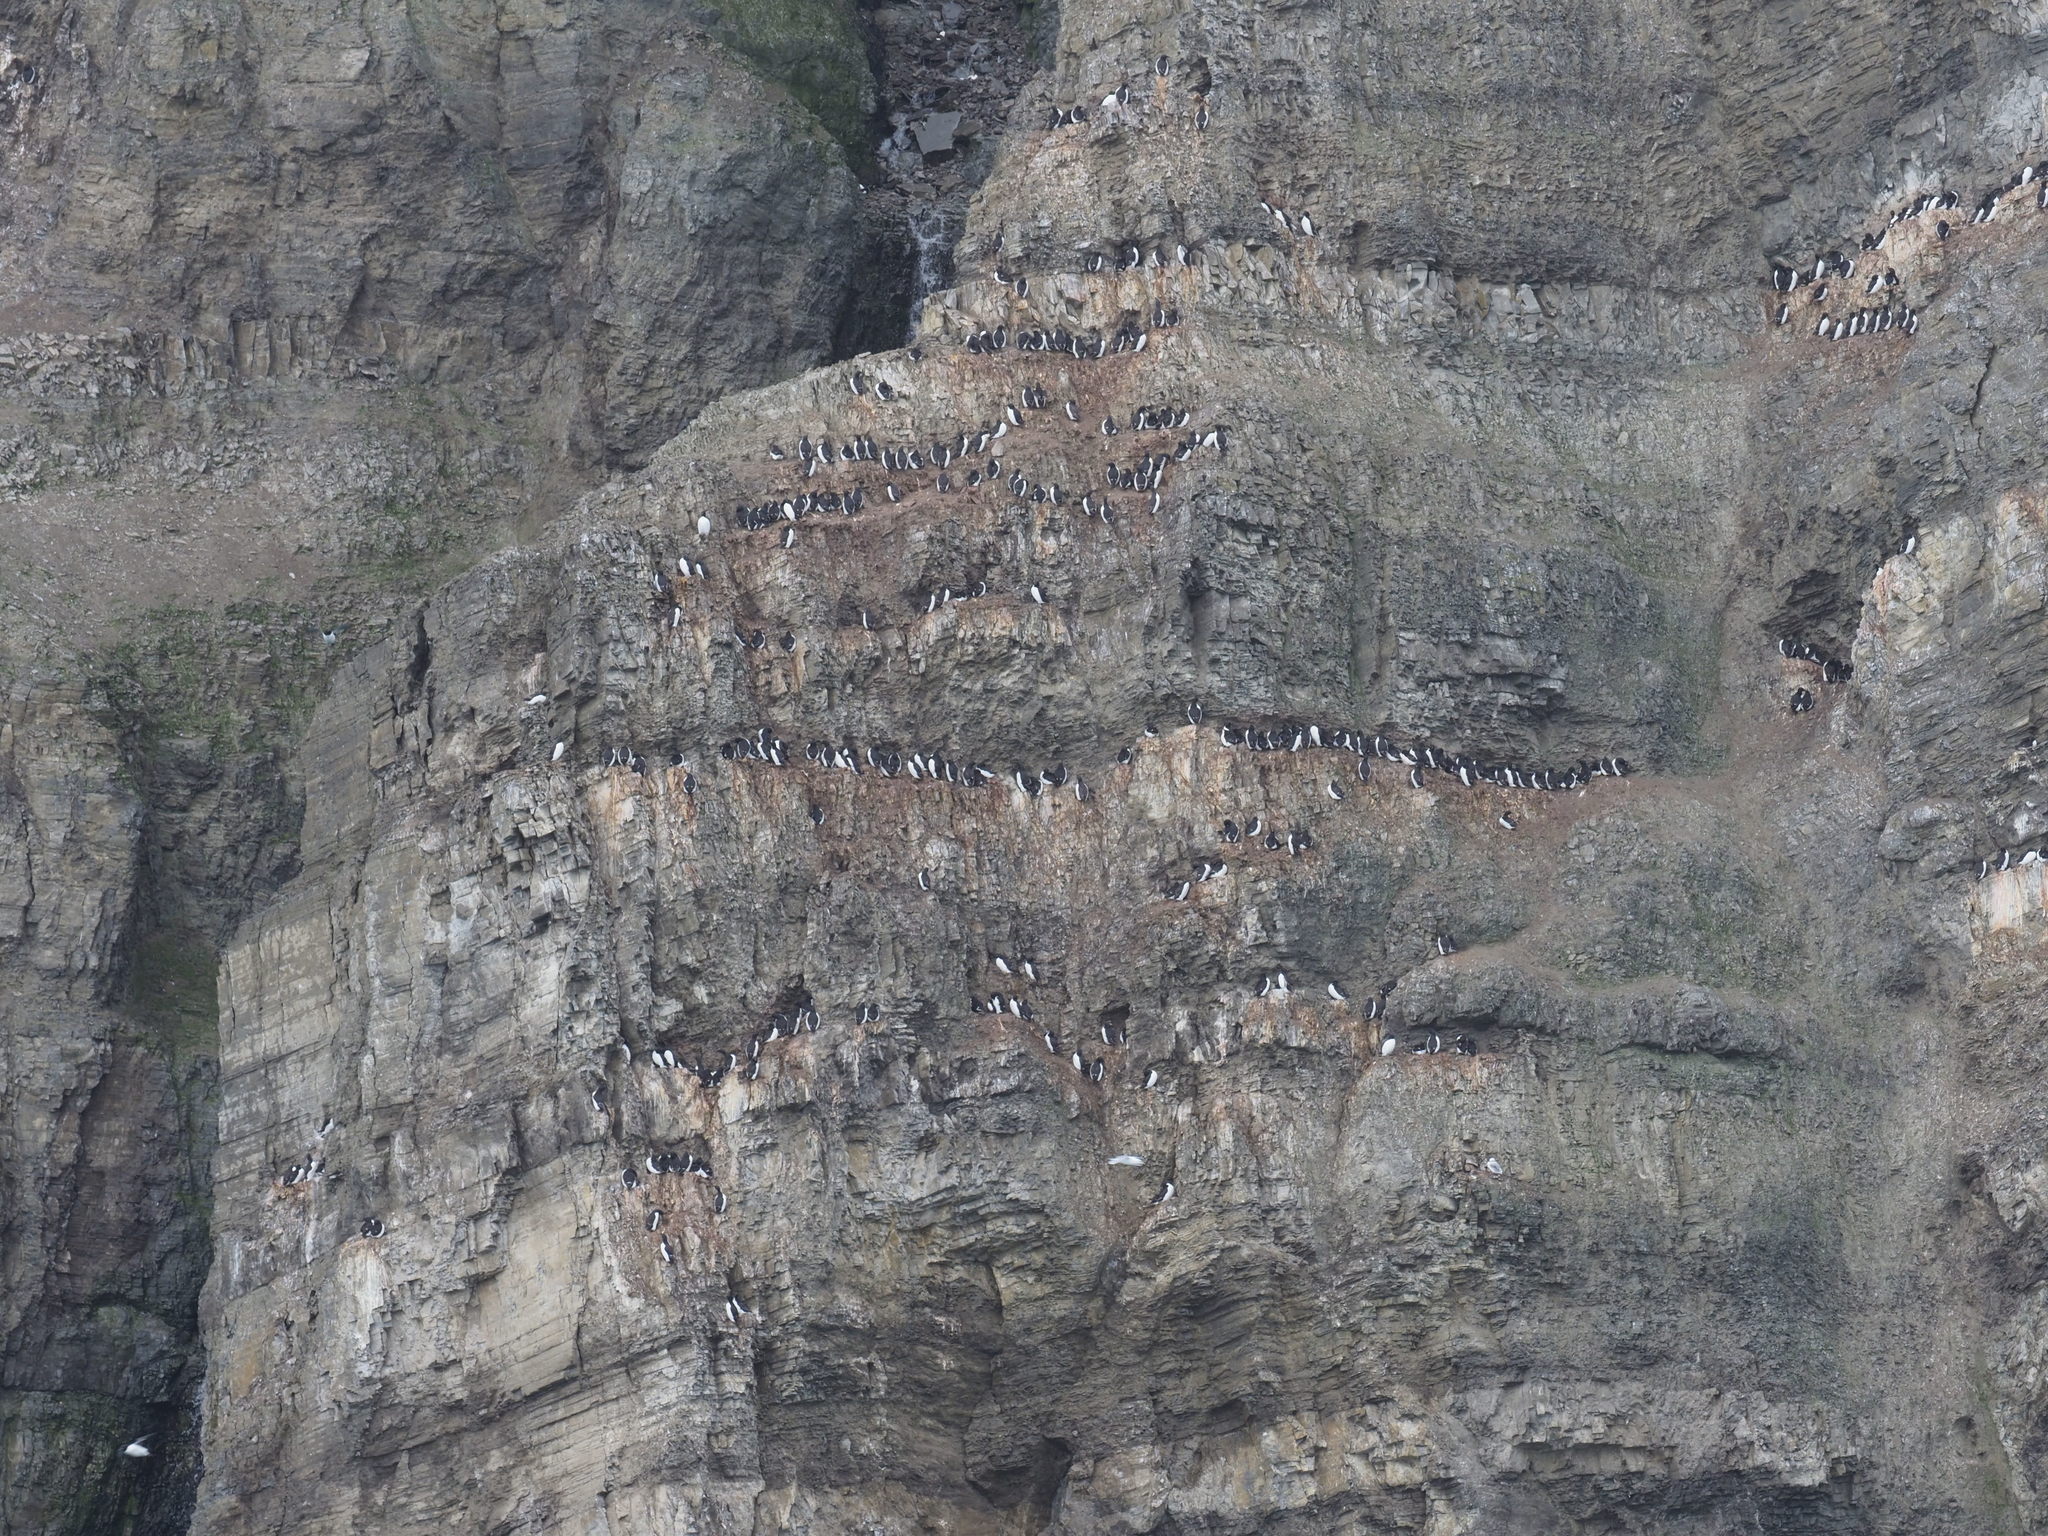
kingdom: Animalia
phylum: Chordata
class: Aves
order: Charadriiformes
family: Alcidae
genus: Uria
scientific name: Uria lomvia
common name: Thick-billed murre
